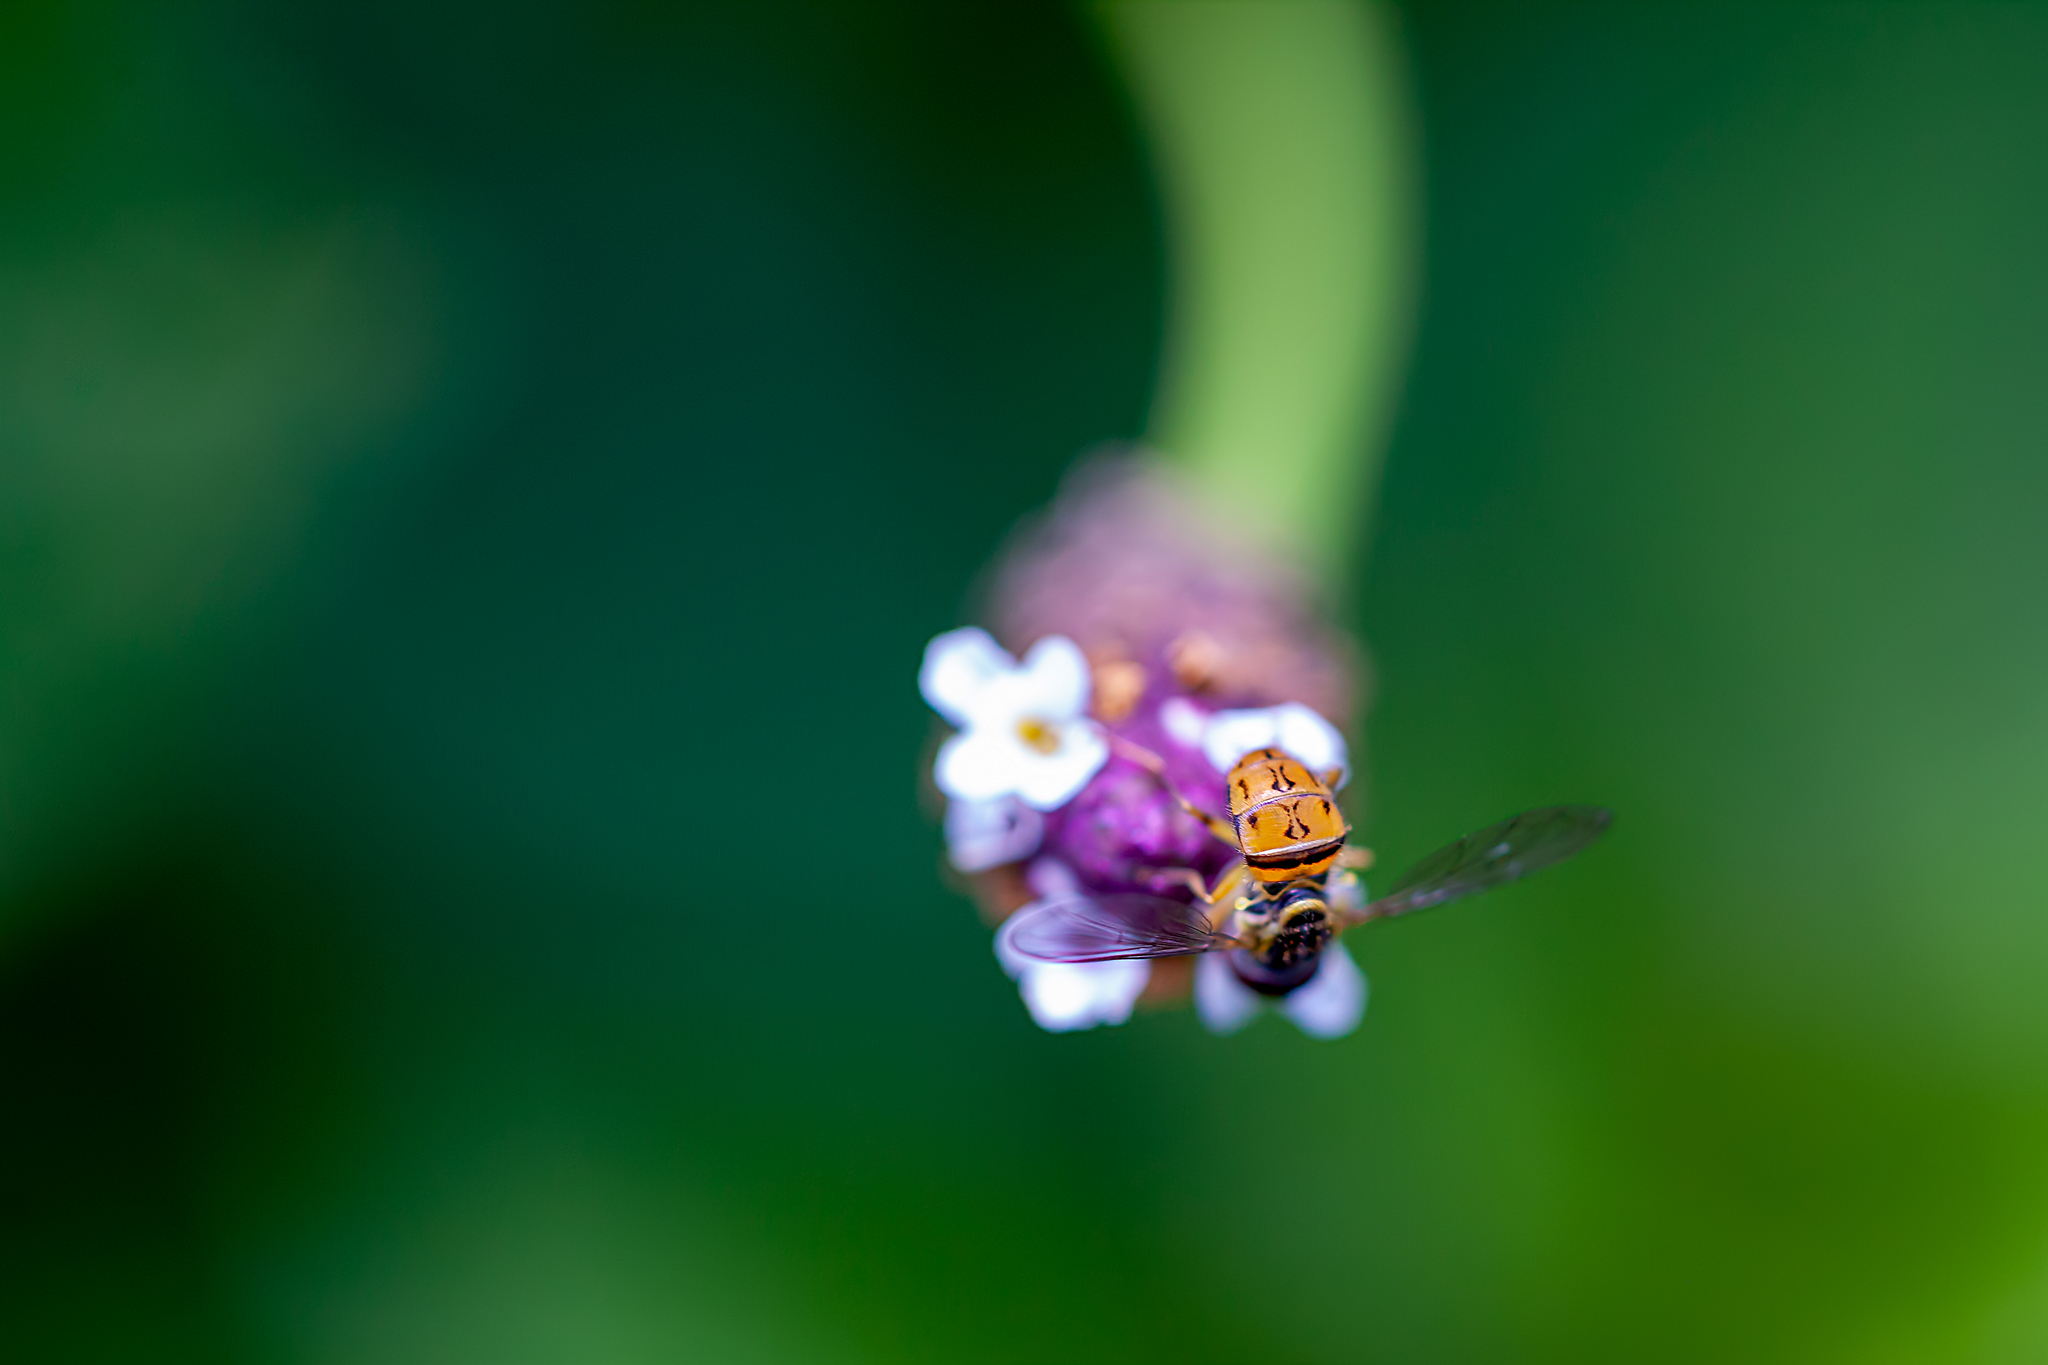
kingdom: Animalia
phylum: Arthropoda
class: Insecta
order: Diptera
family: Syrphidae
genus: Toxomerus
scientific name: Toxomerus boscii
